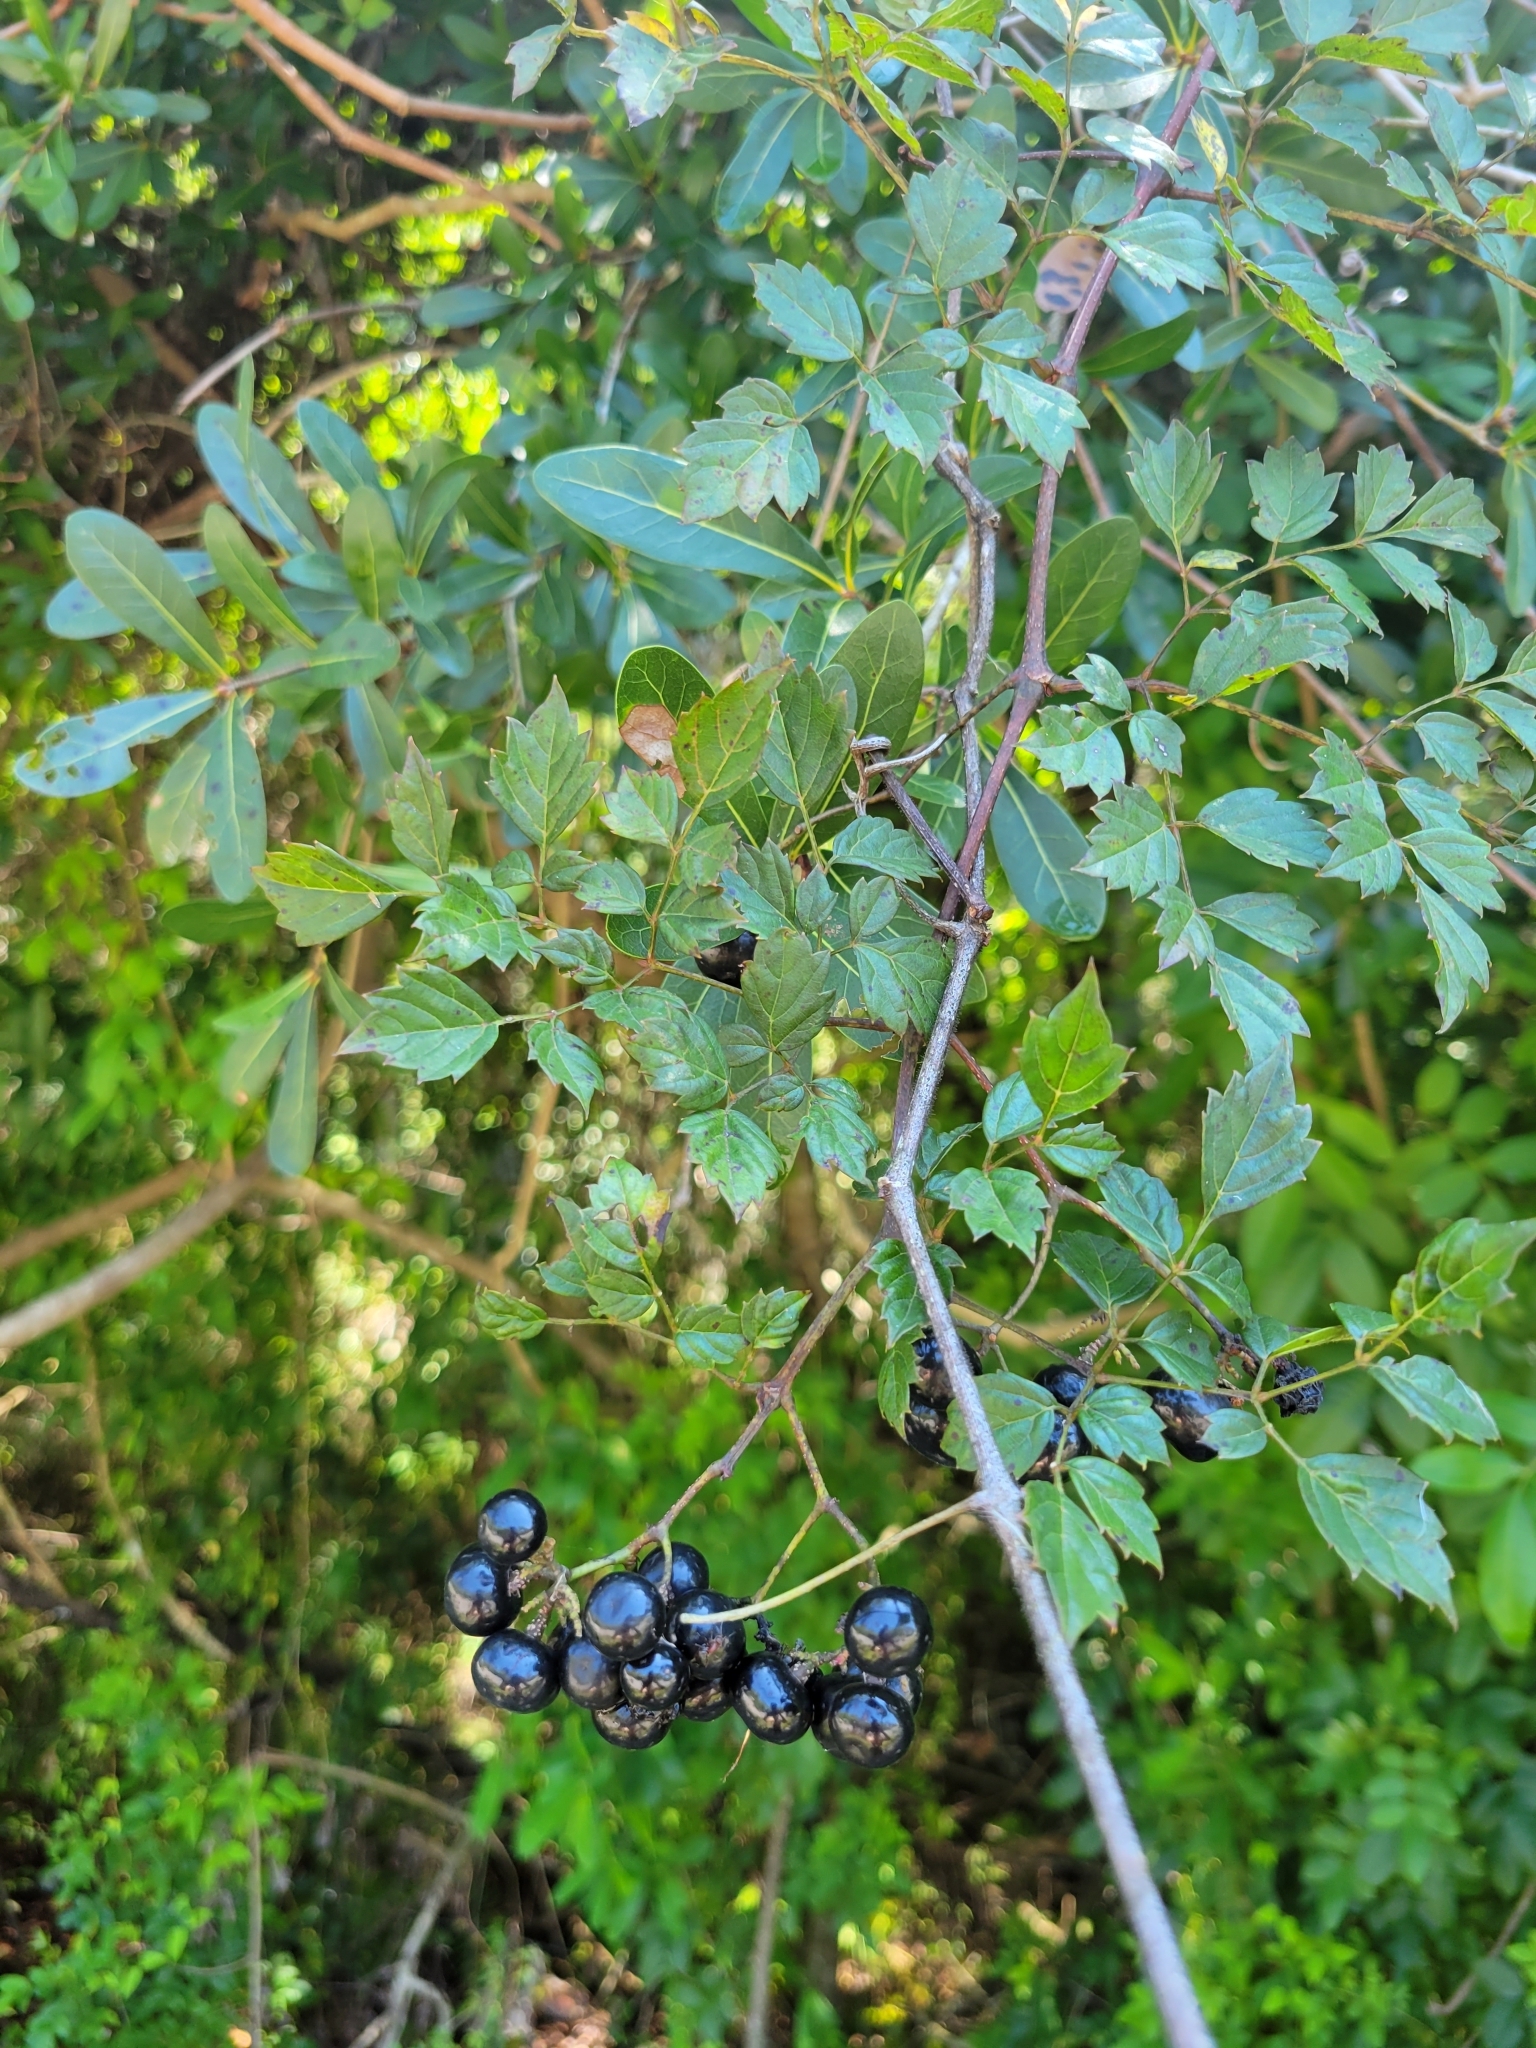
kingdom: Plantae
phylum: Tracheophyta
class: Magnoliopsida
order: Vitales
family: Vitaceae
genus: Nekemias
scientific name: Nekemias arborea
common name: Peppervine
